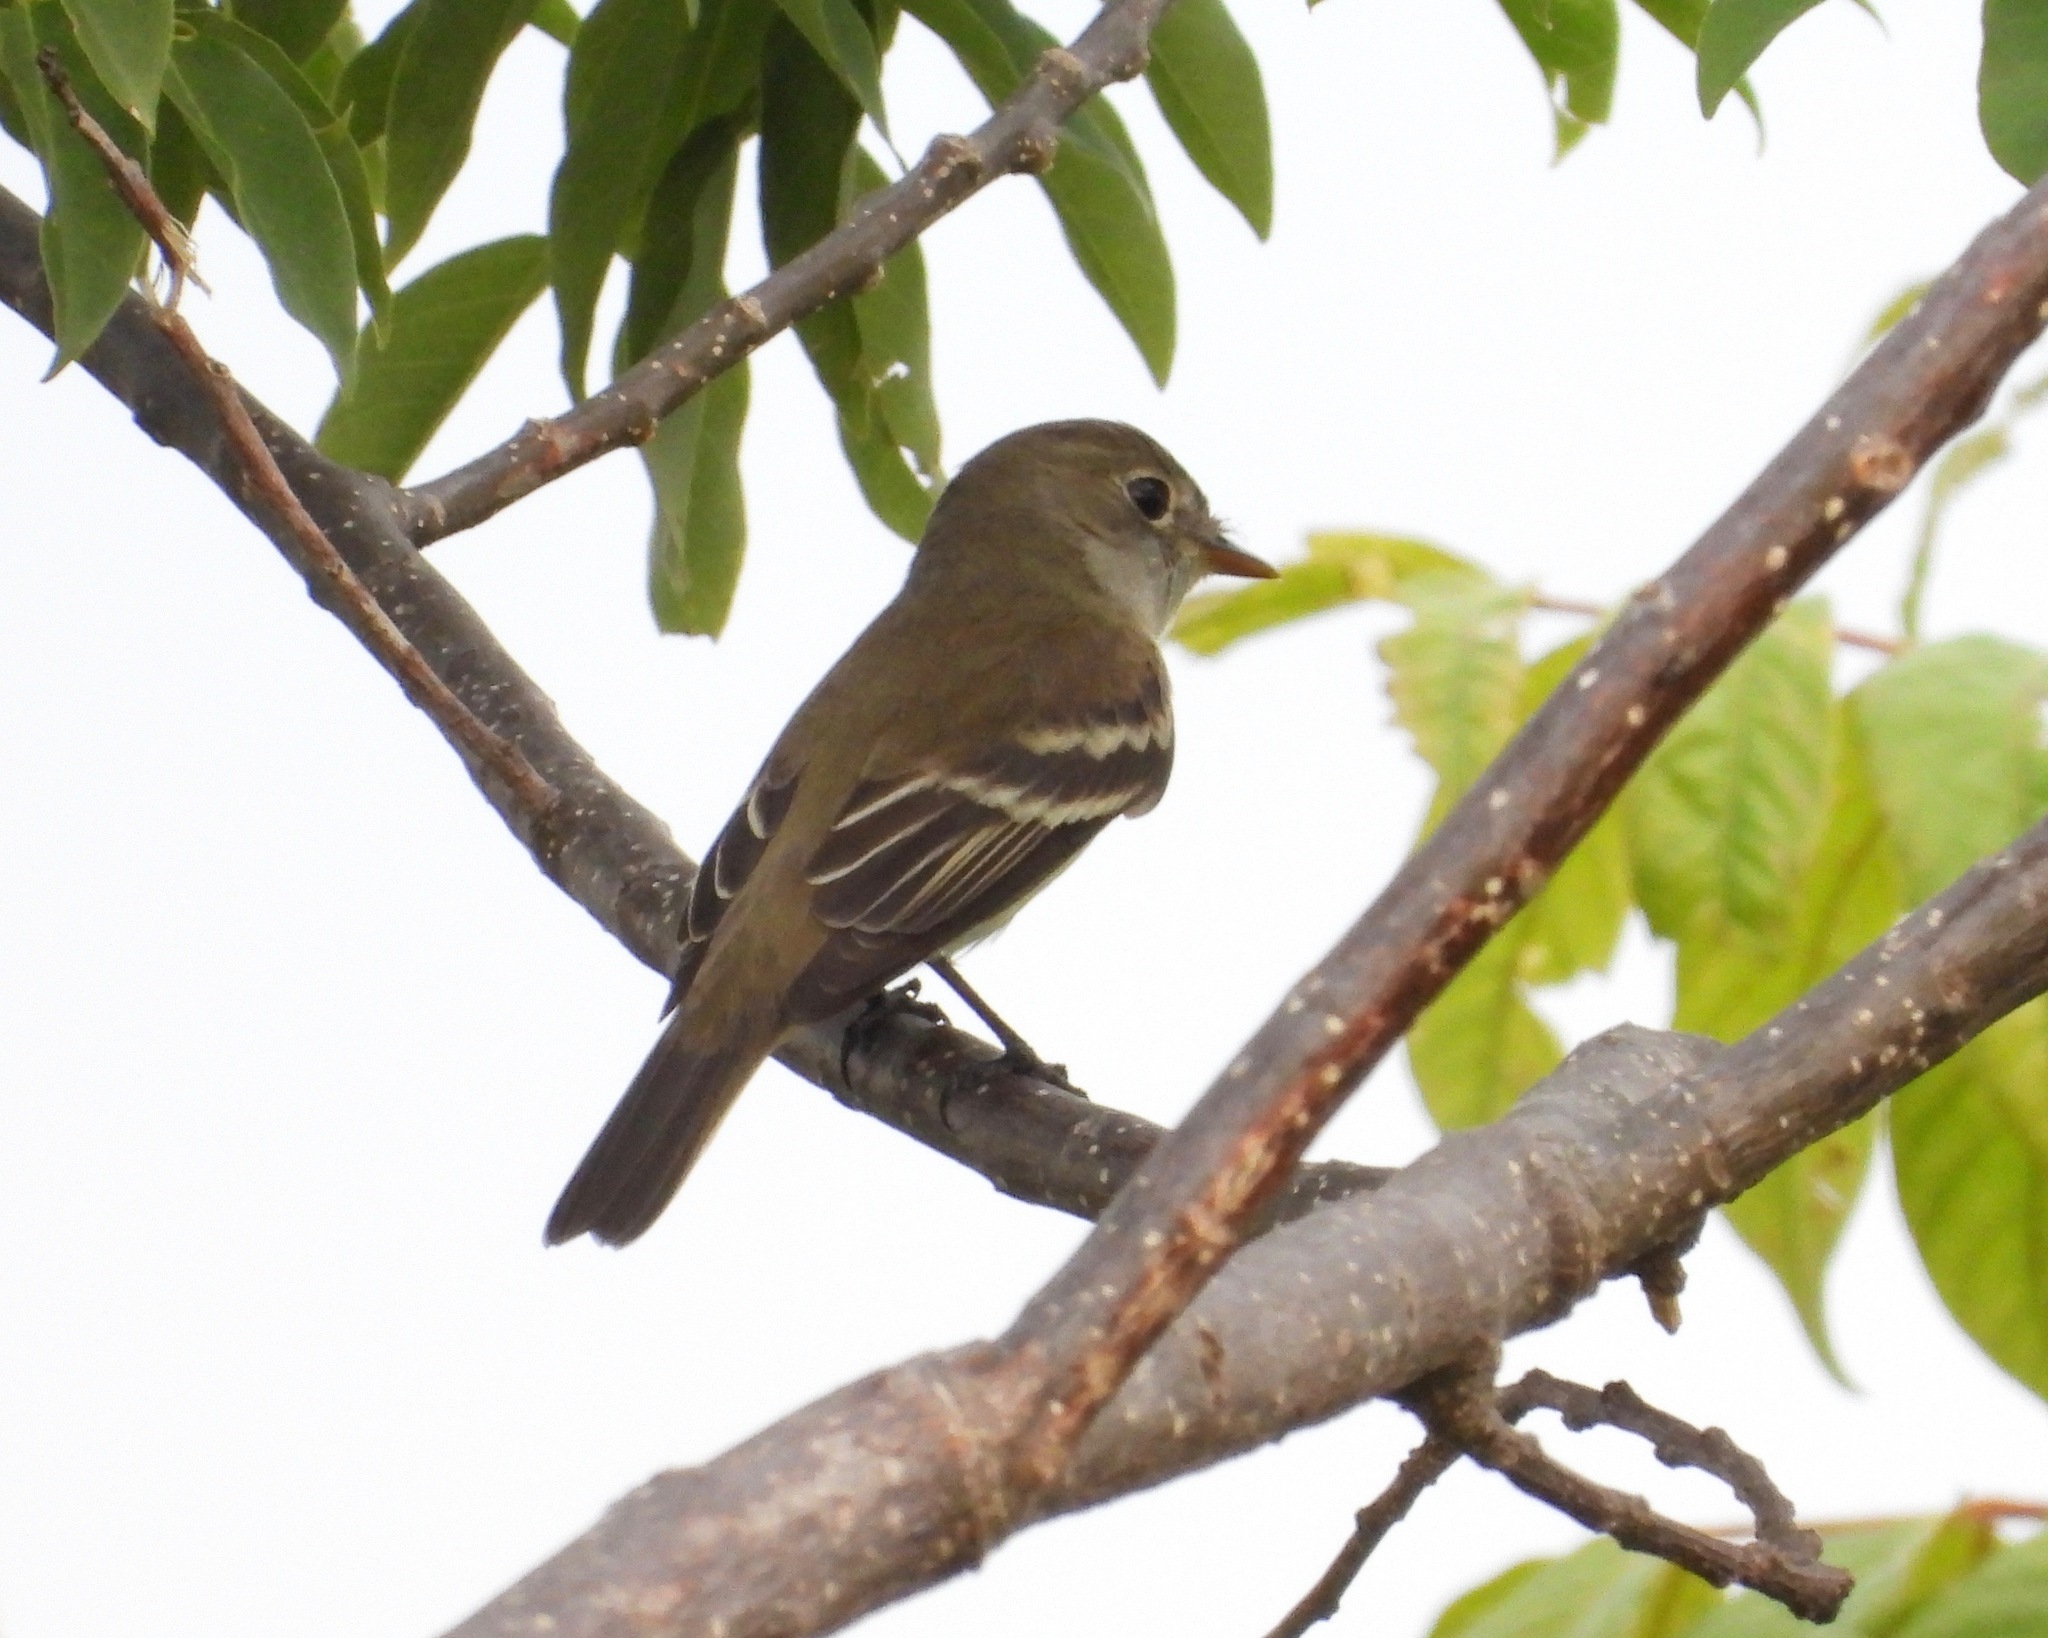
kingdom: Animalia
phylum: Chordata
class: Aves
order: Passeriformes
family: Tyrannidae
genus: Empidonax
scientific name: Empidonax alnorum
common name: Alder flycatcher
